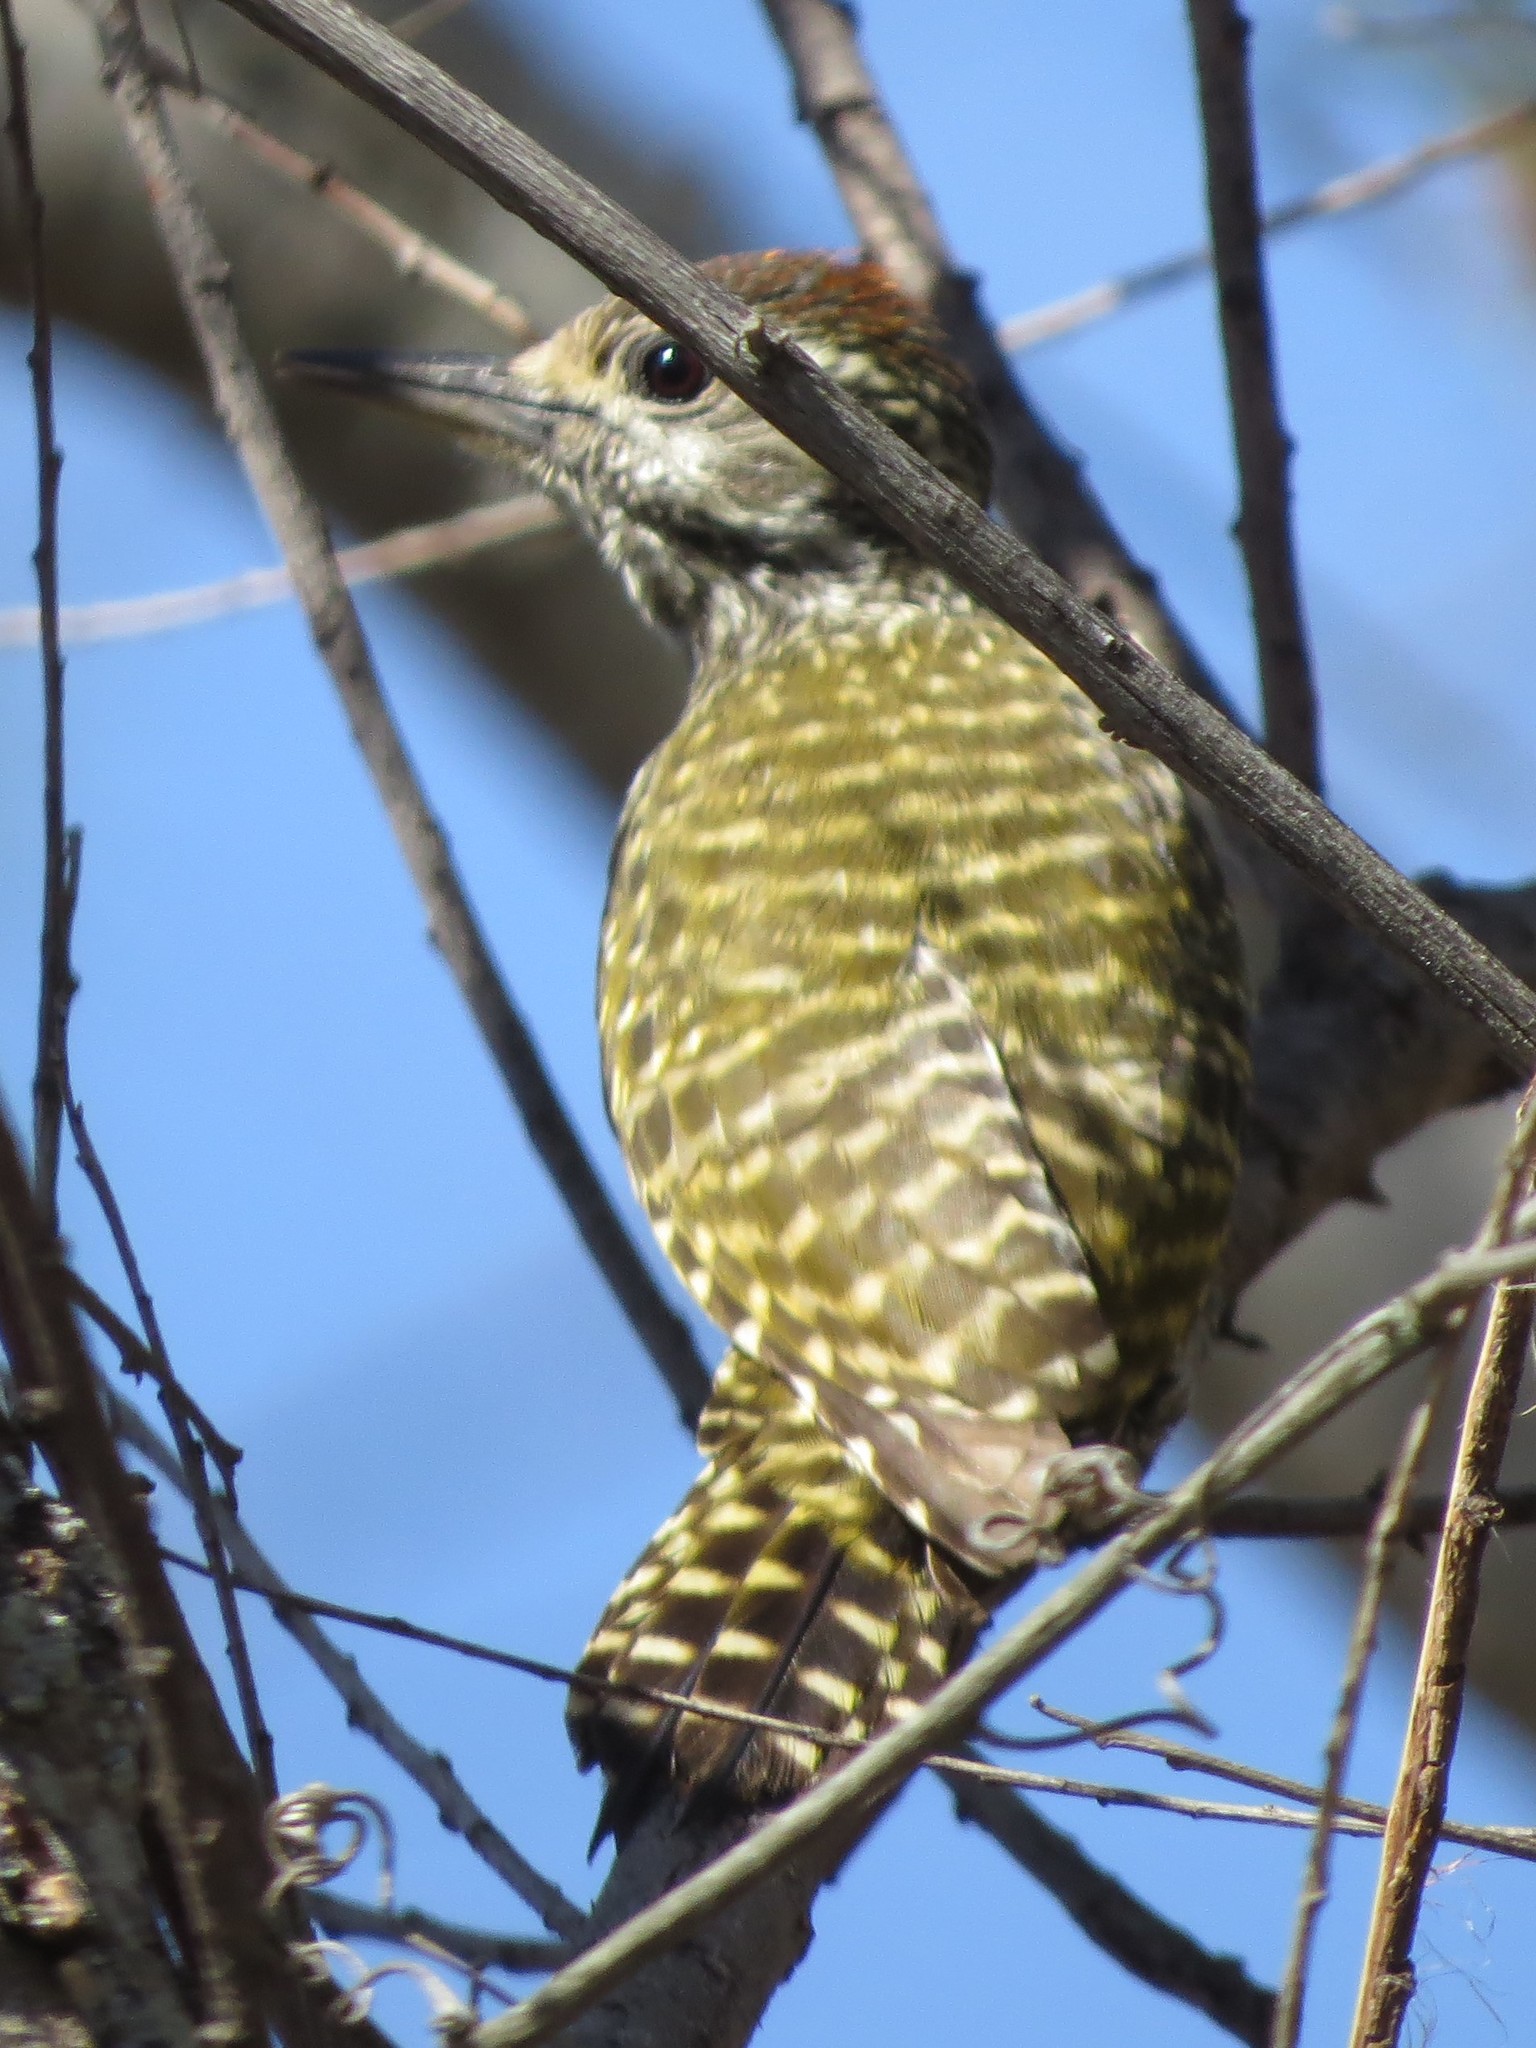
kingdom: Animalia
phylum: Chordata
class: Aves
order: Piciformes
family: Picidae
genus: Veniliornis
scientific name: Veniliornis spilogaster
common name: White-spotted woodpecker
